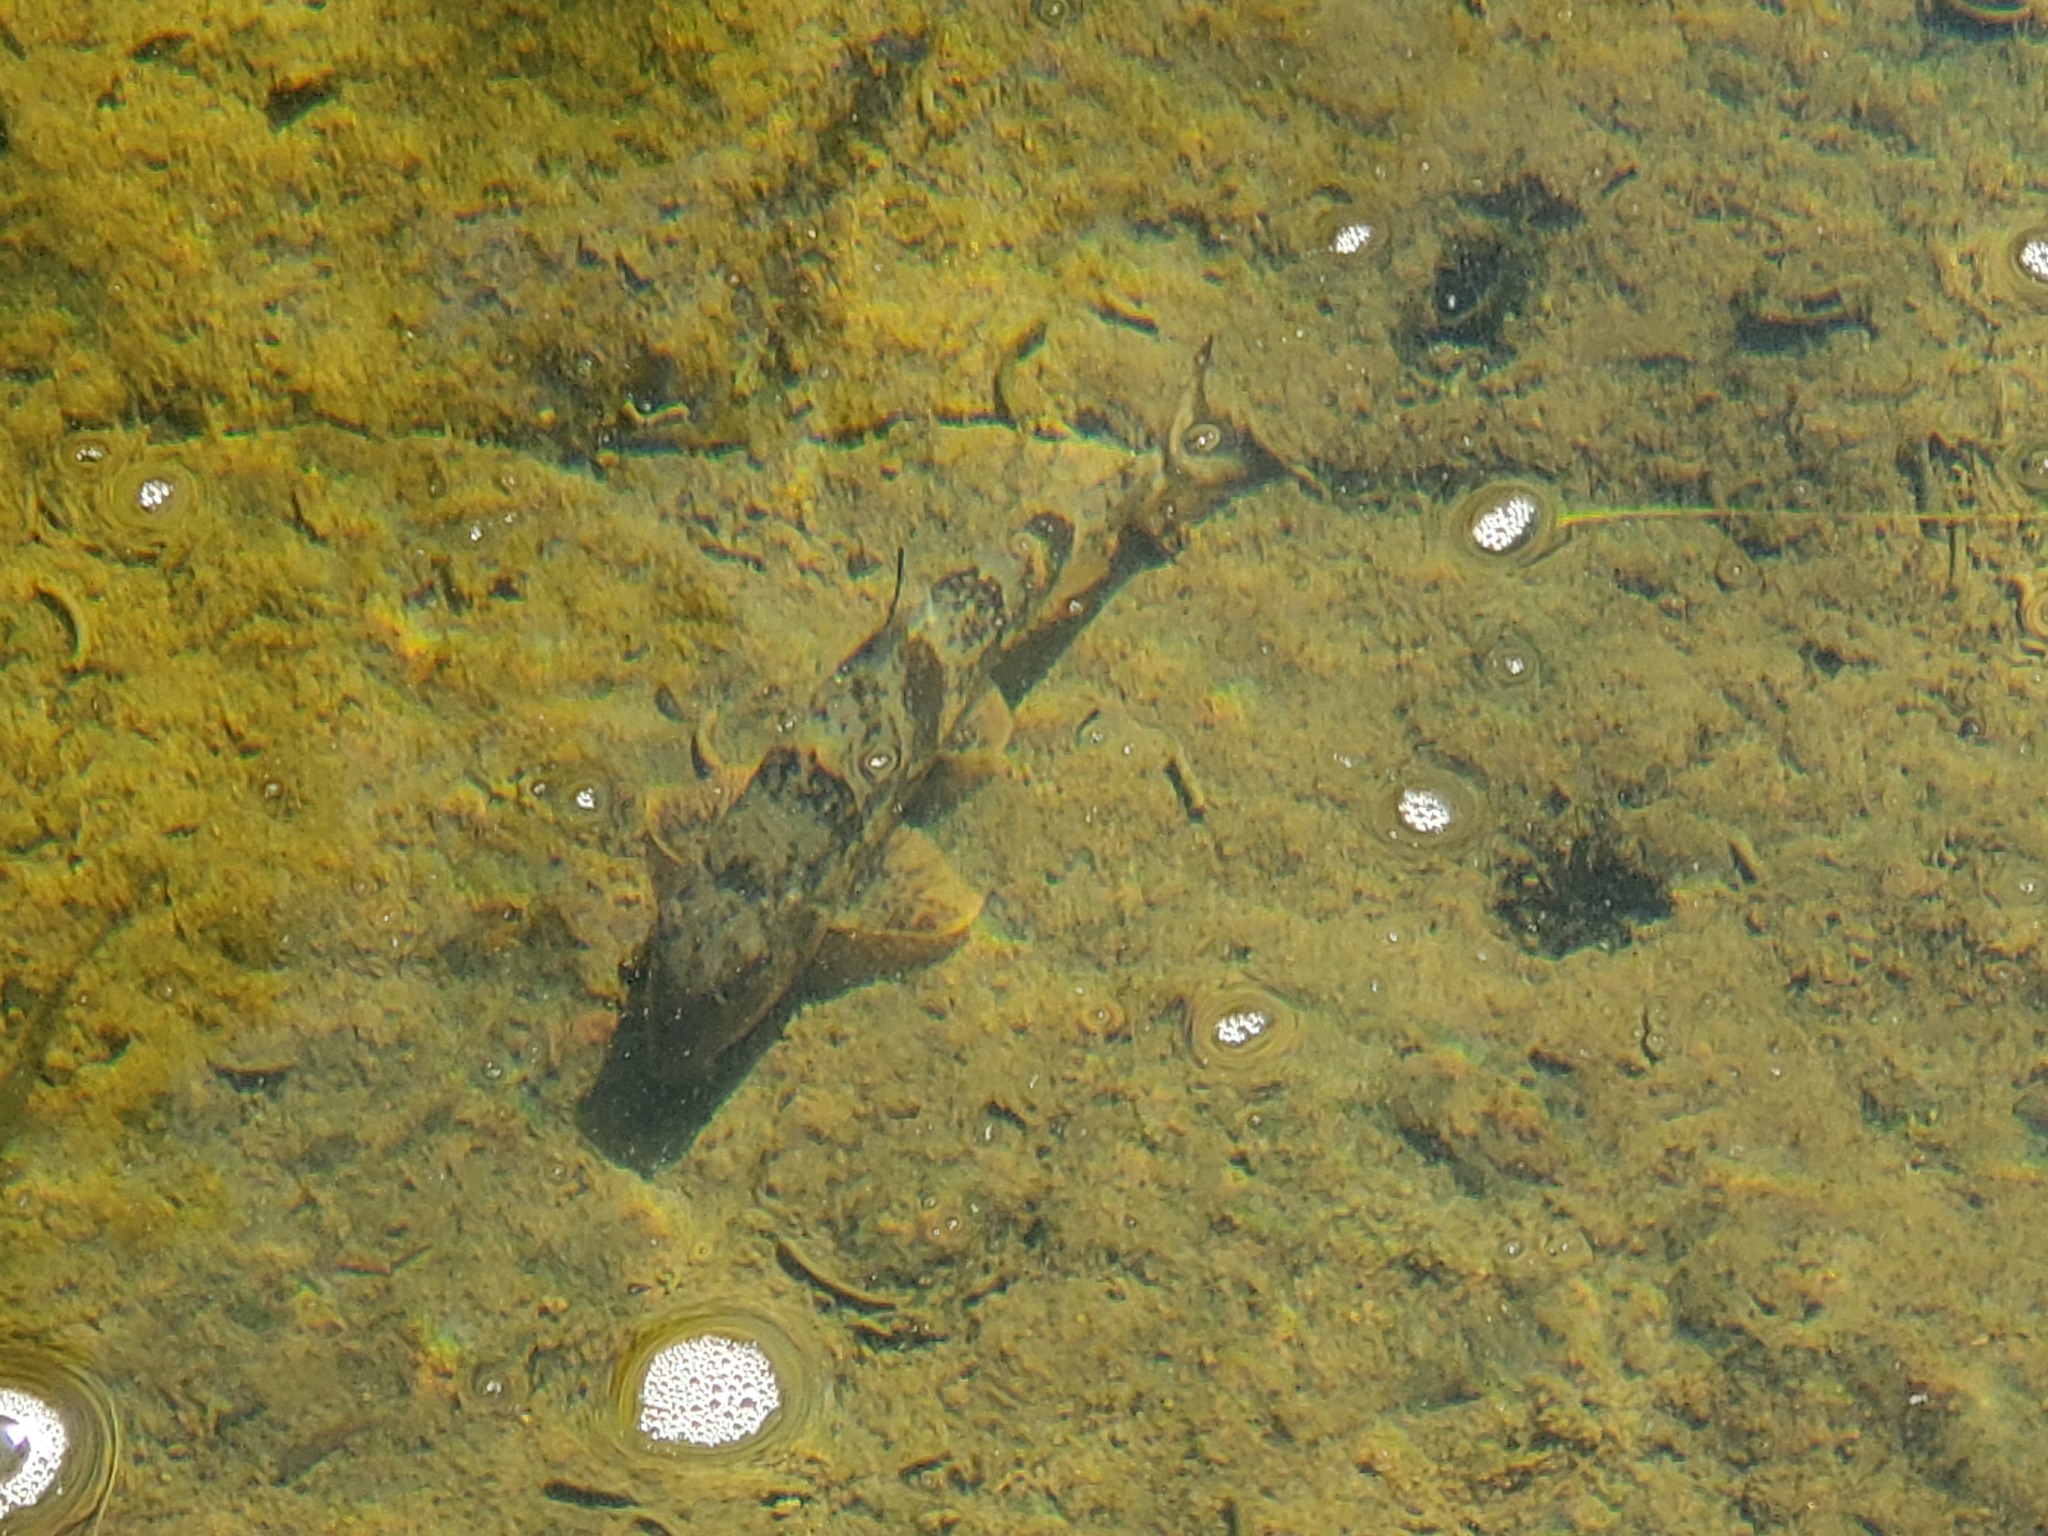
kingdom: Animalia
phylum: Chordata
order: Cypriniformes
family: Catostomidae
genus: Hypentelium
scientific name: Hypentelium nigricans
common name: Northern hog sucker
